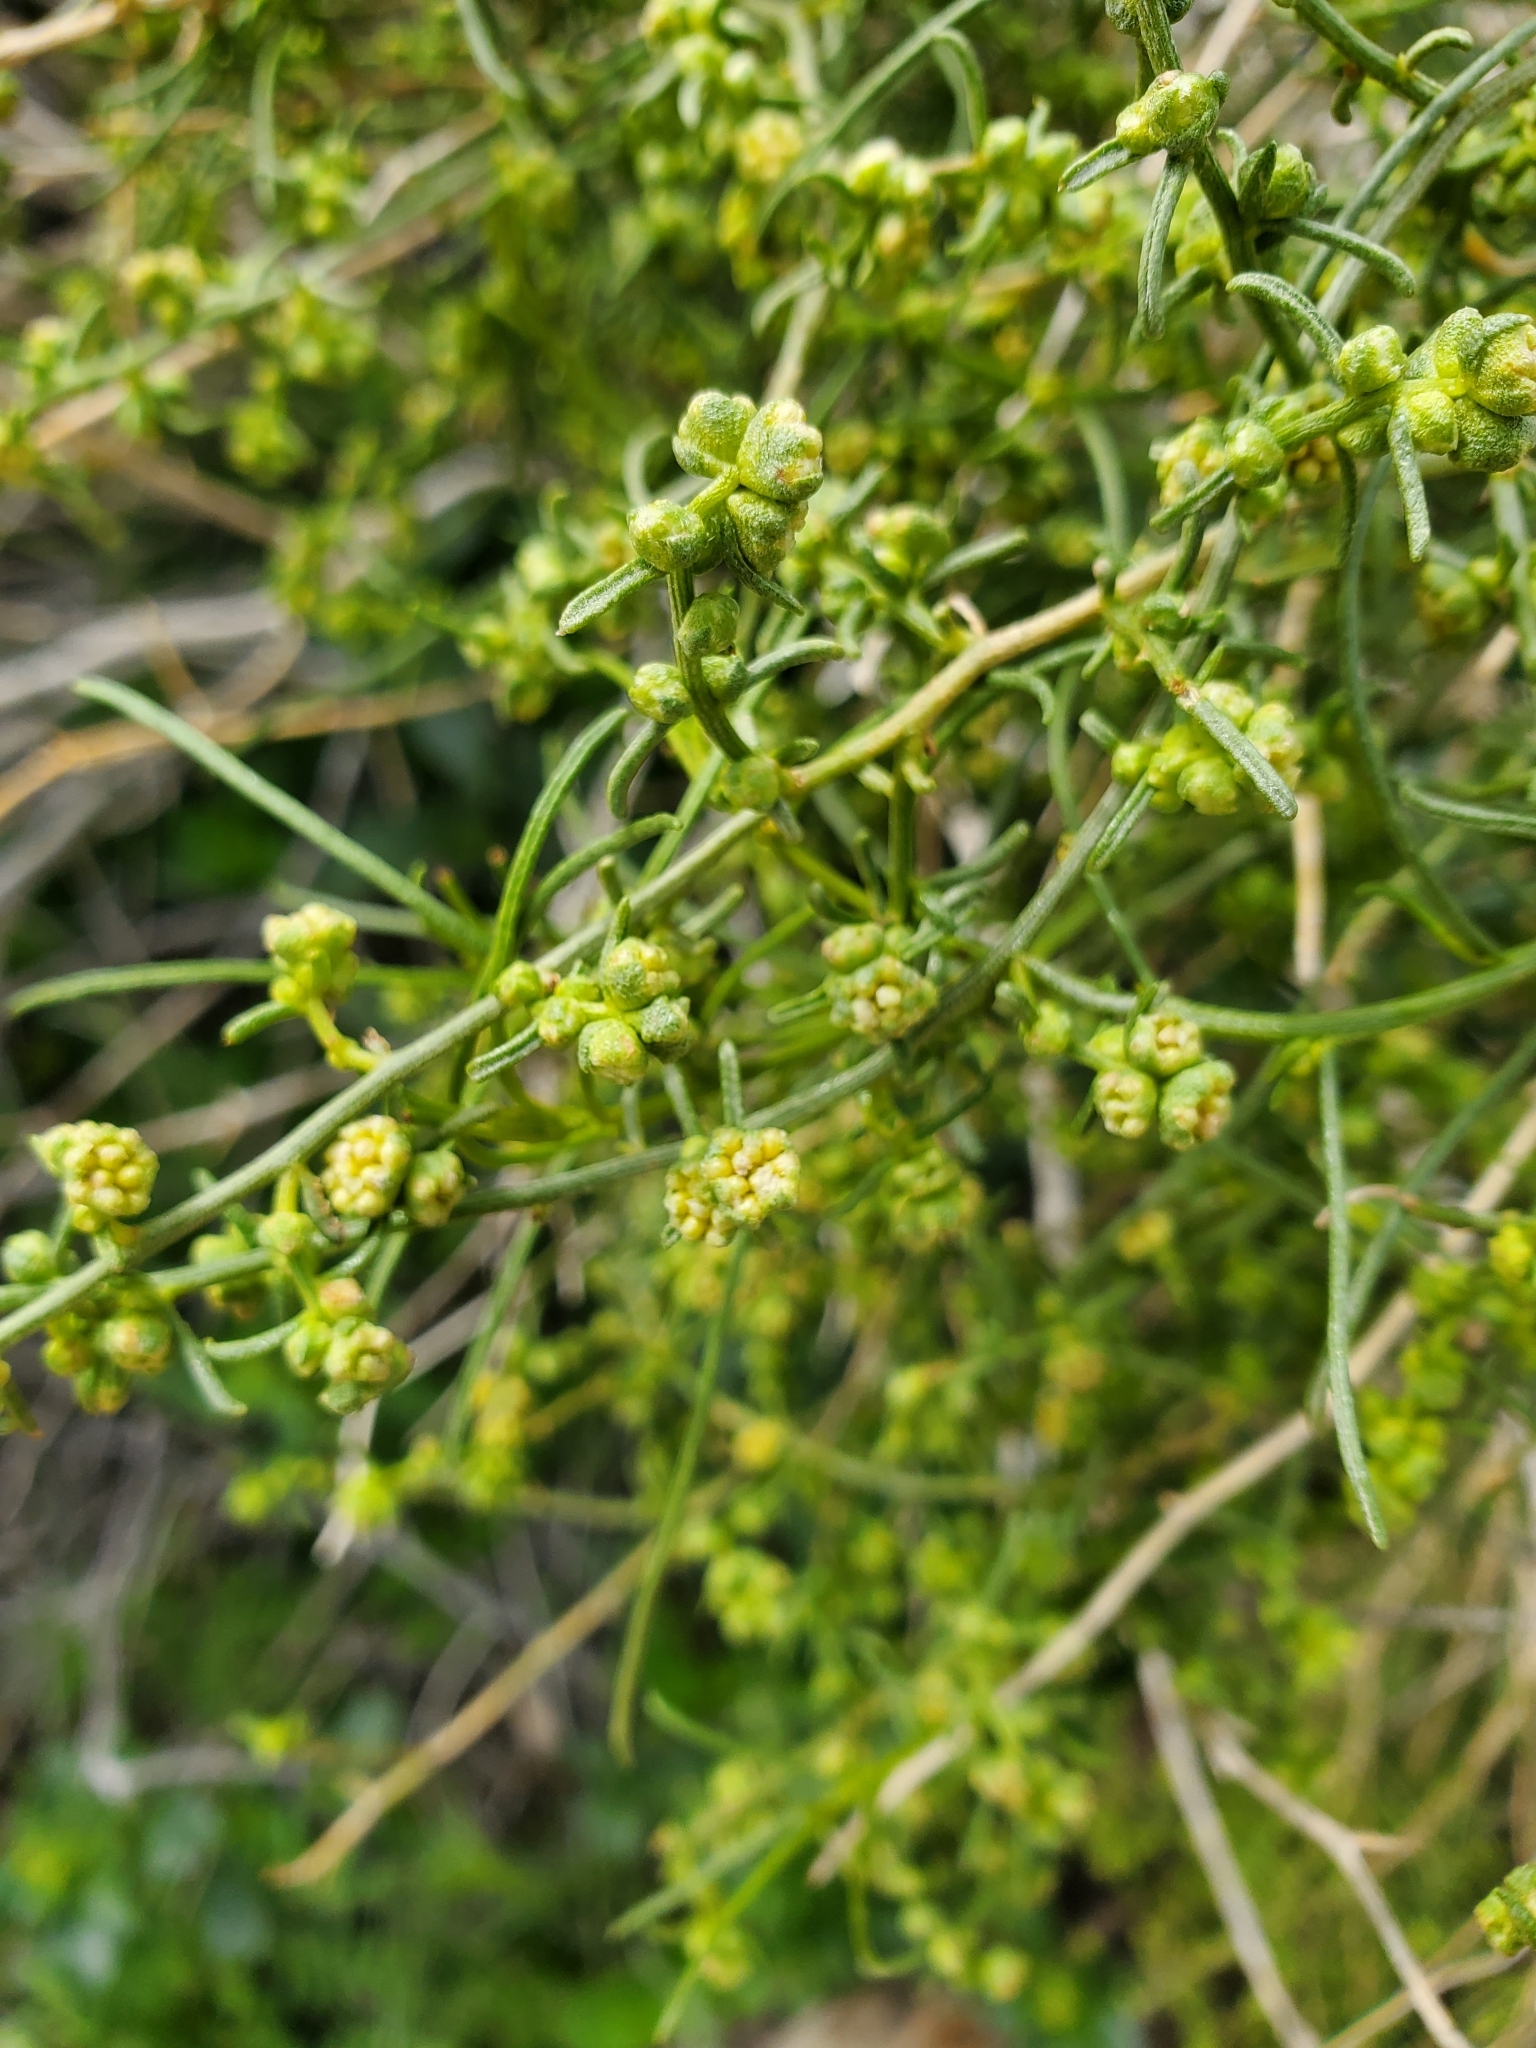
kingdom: Plantae
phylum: Tracheophyta
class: Magnoliopsida
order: Asterales
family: Asteraceae
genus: Ambrosia
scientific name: Ambrosia salsola
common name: Burrobrush
